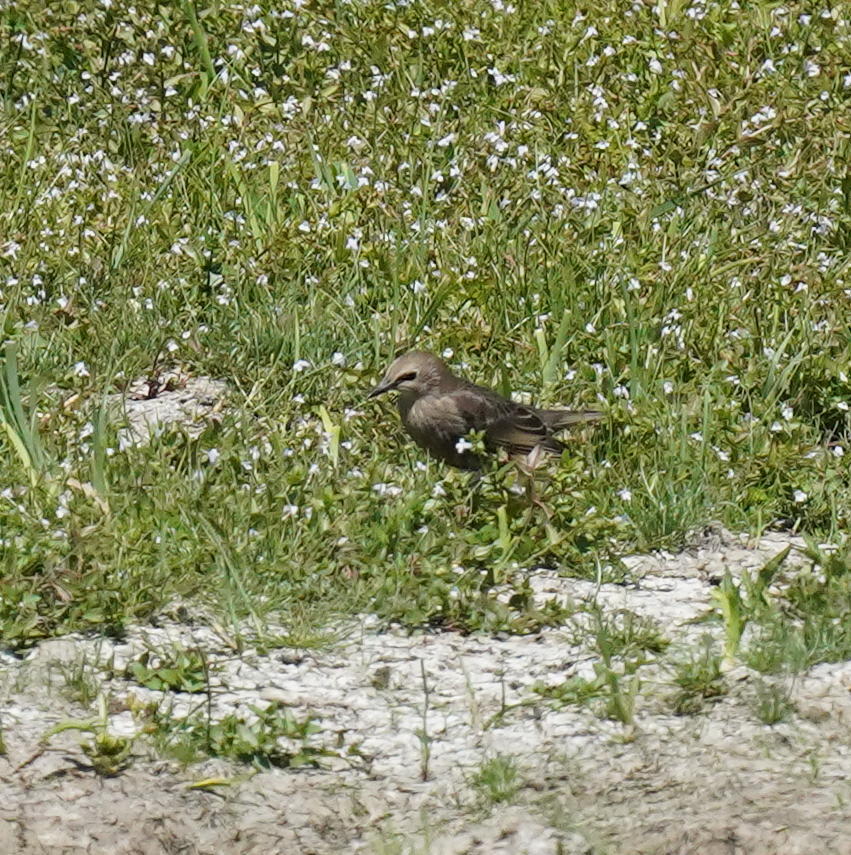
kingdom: Animalia
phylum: Chordata
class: Aves
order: Passeriformes
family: Sturnidae
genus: Sturnus
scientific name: Sturnus vulgaris
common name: Common starling
